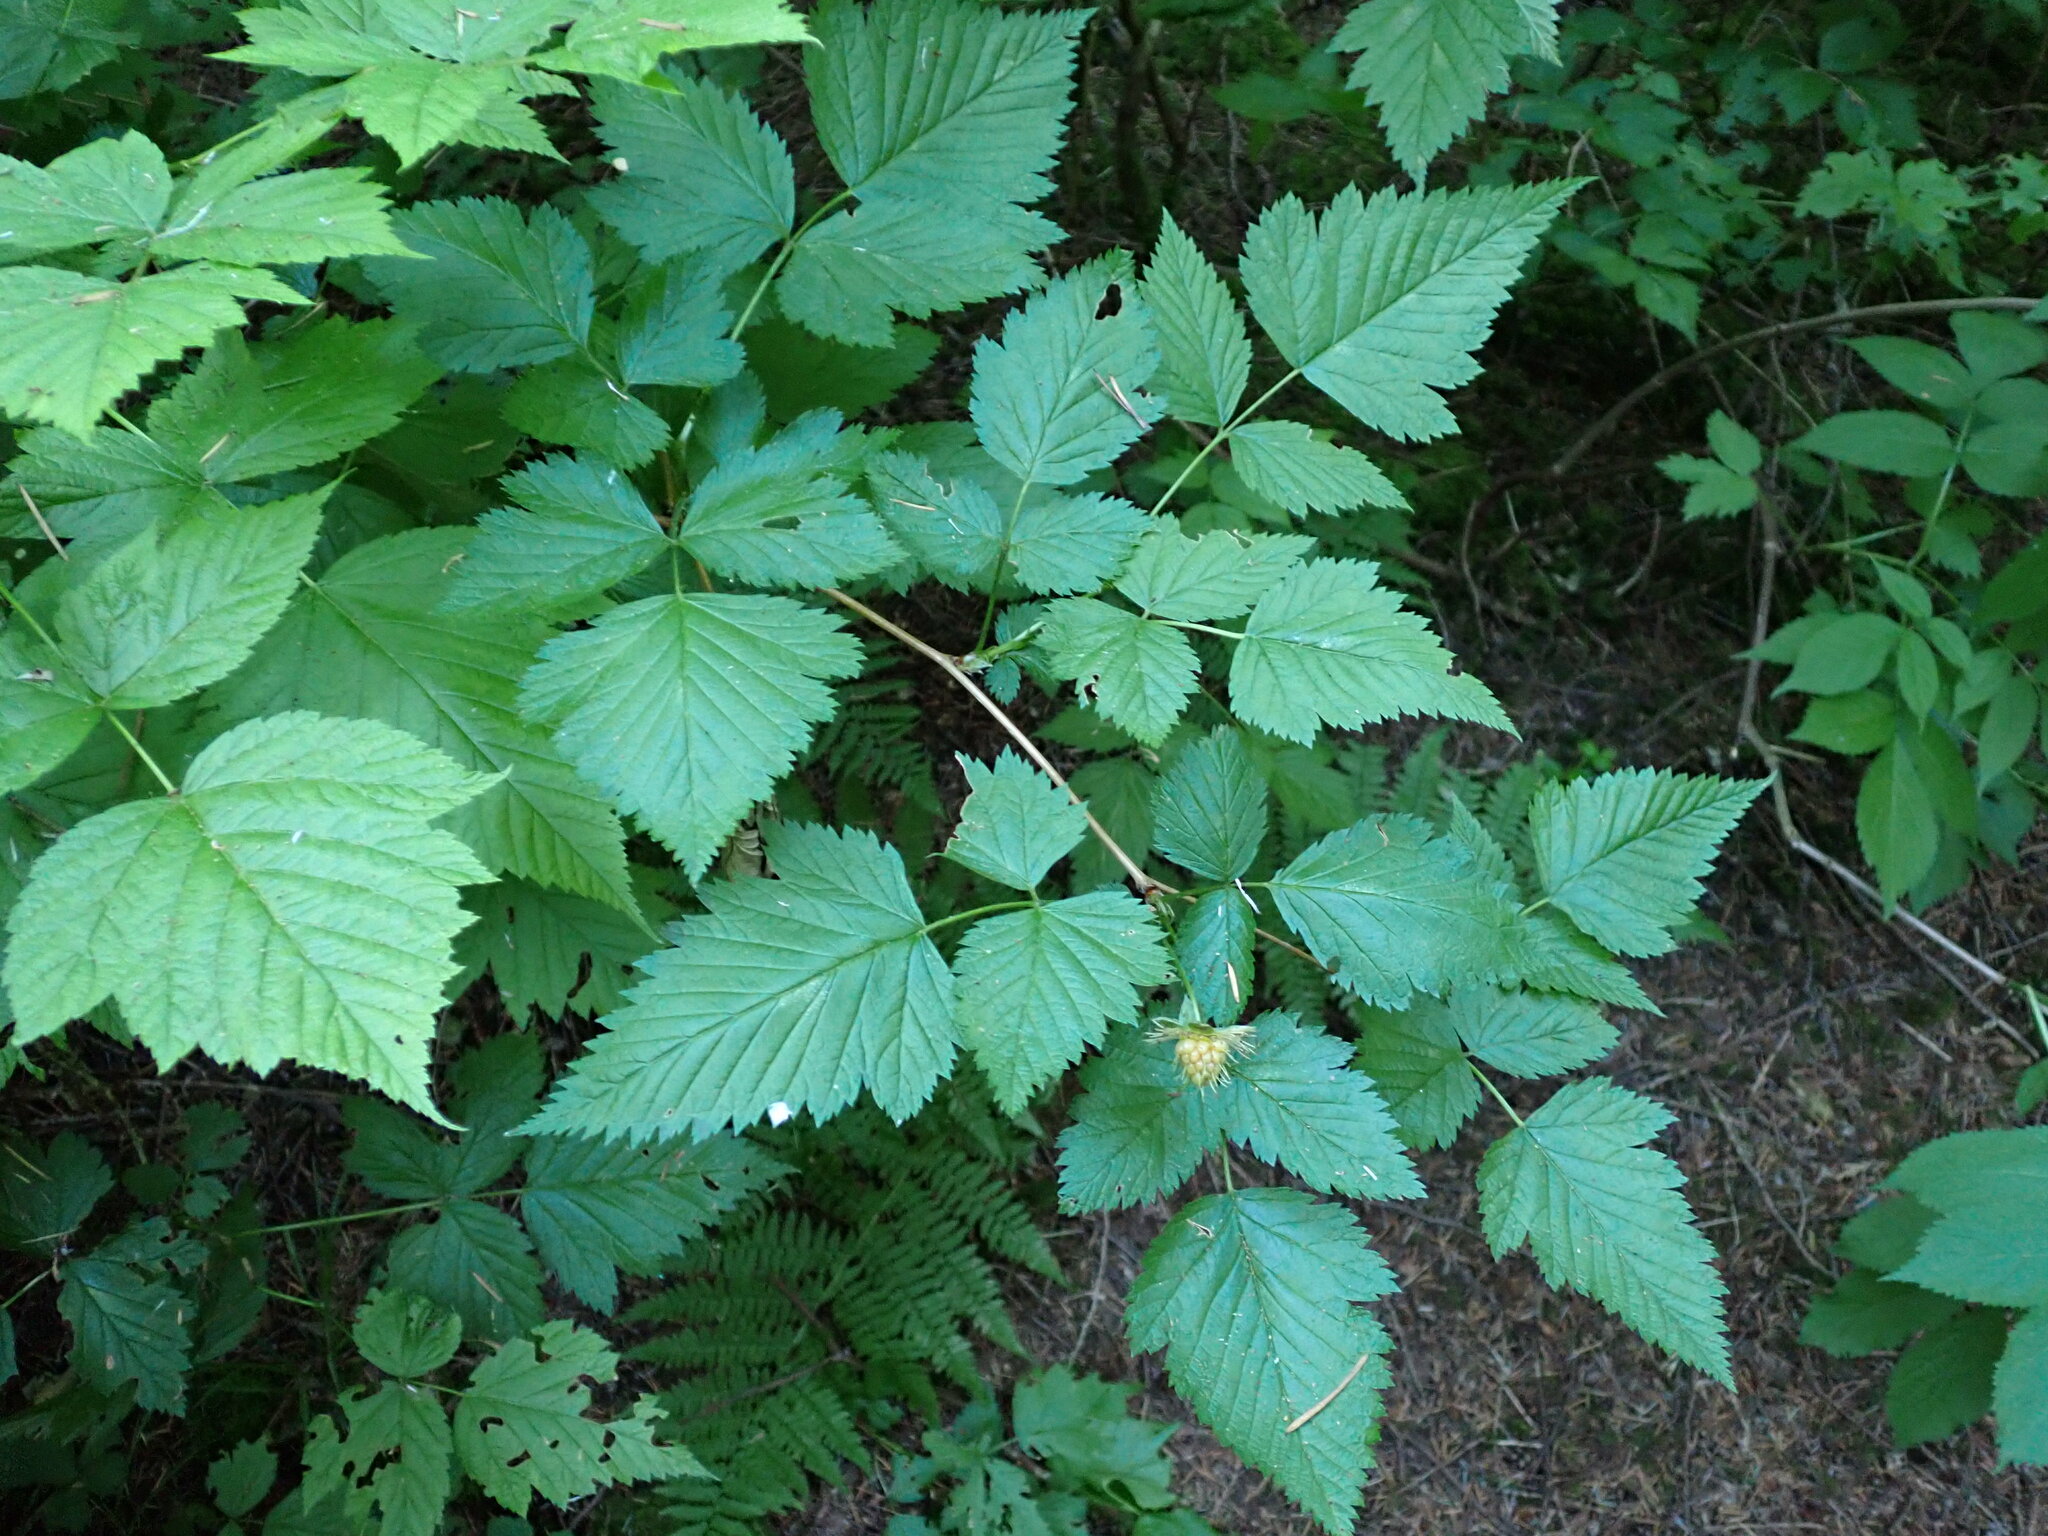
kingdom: Plantae
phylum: Tracheophyta
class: Magnoliopsida
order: Rosales
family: Rosaceae
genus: Rubus
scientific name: Rubus spectabilis
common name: Salmonberry
